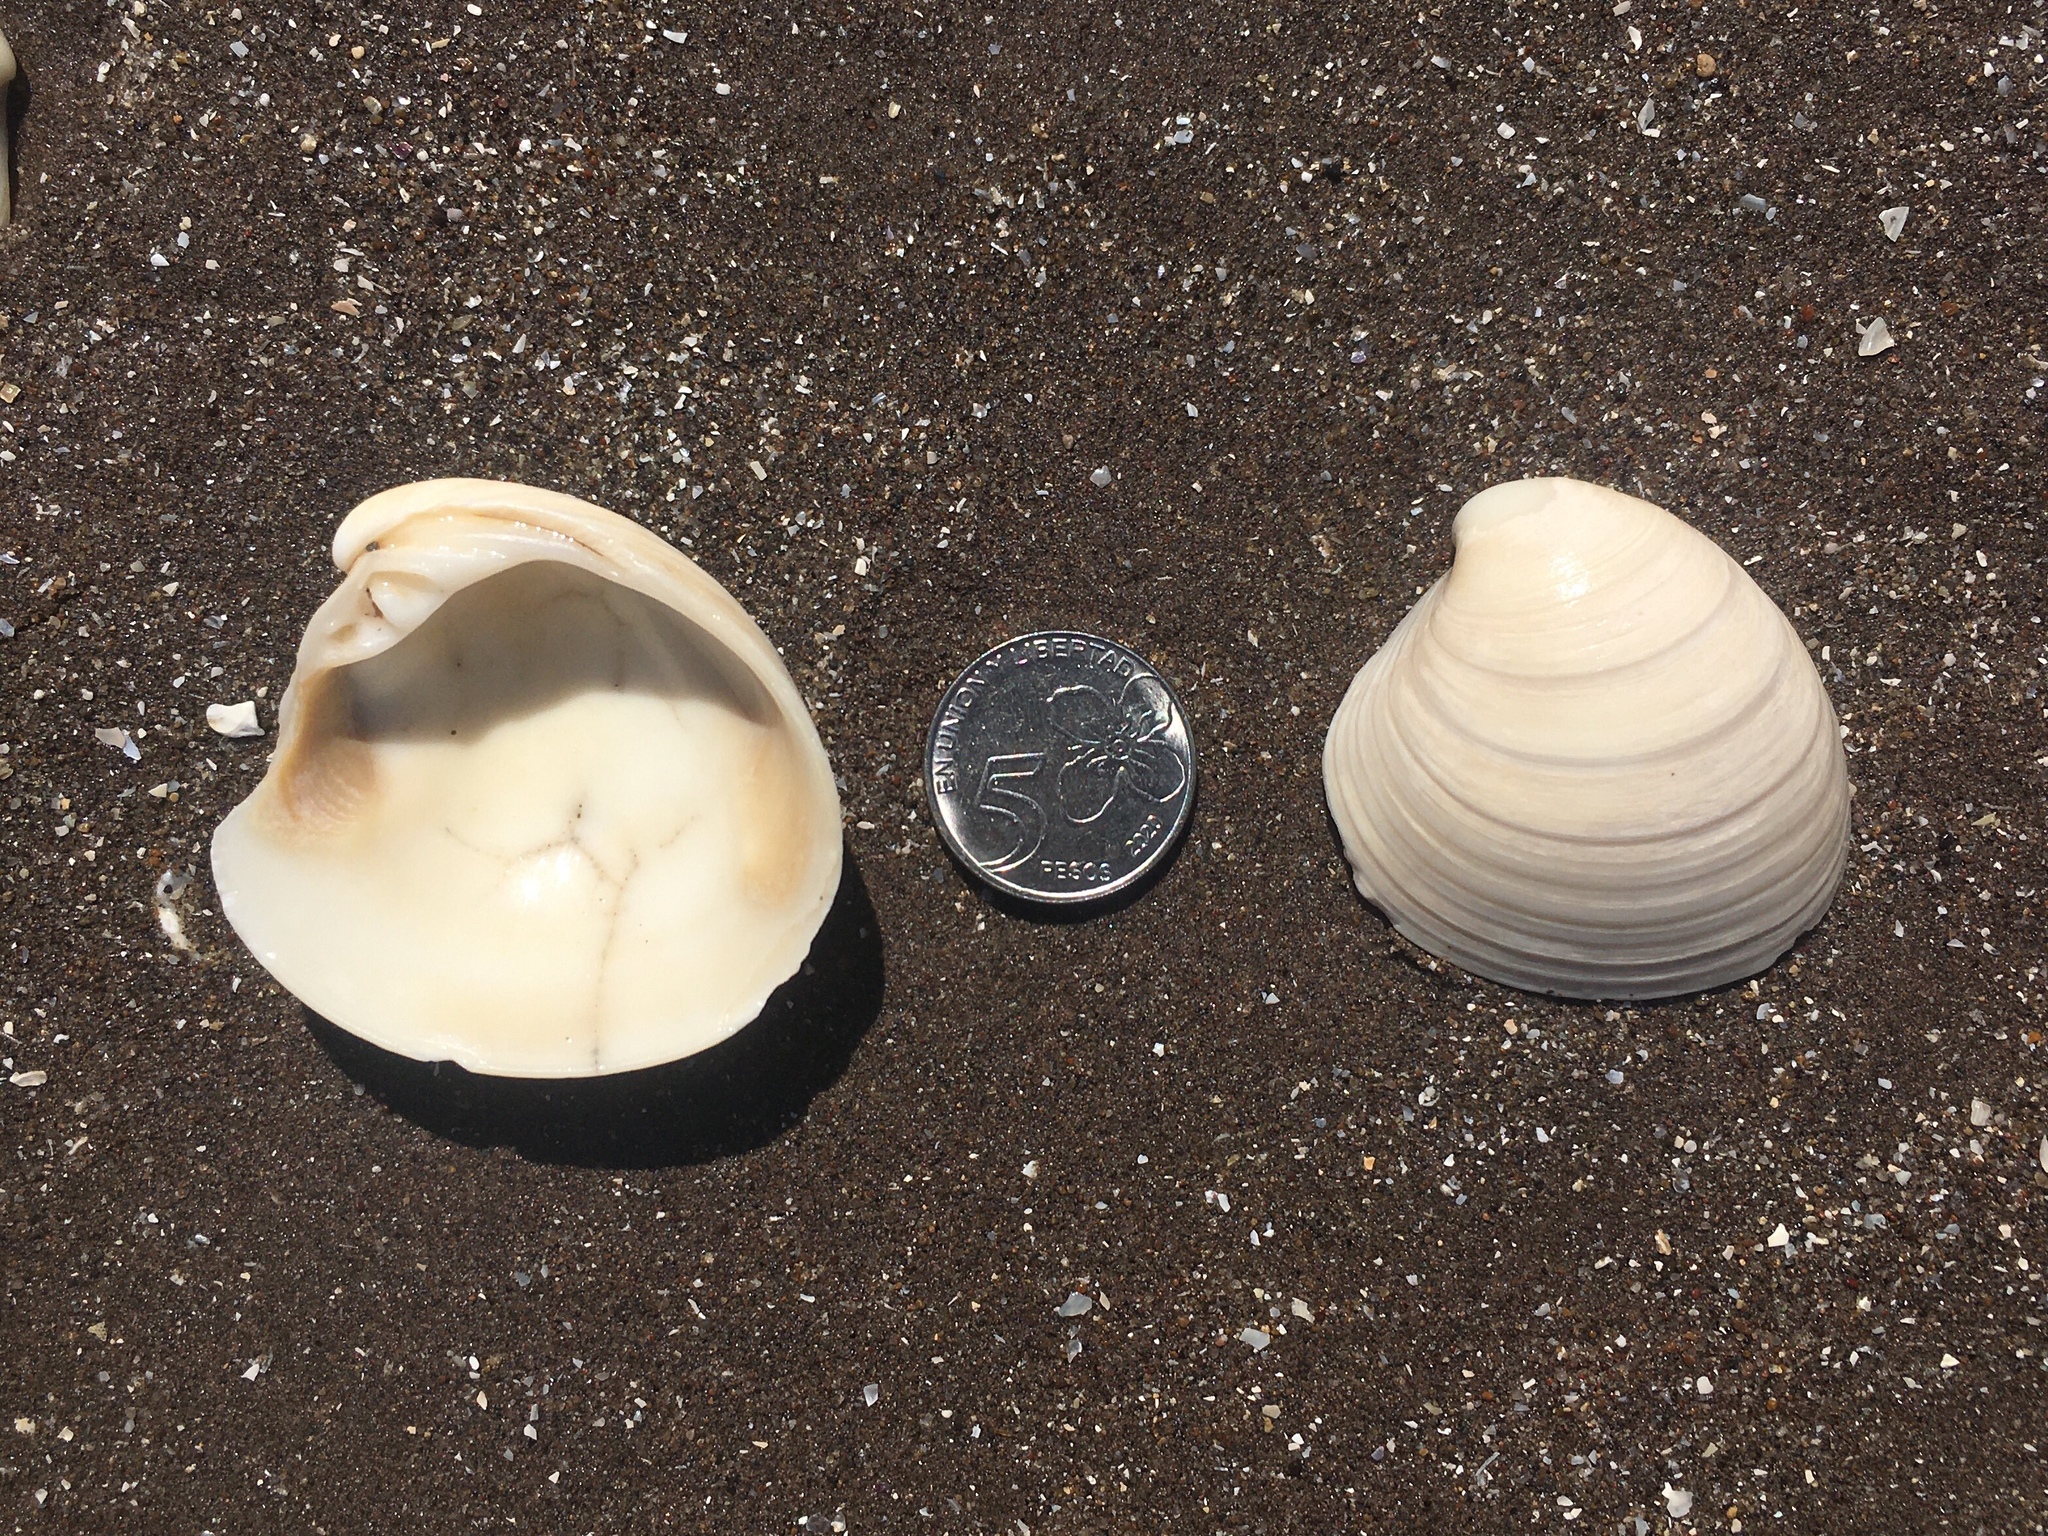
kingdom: Animalia
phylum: Mollusca
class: Bivalvia
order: Venerida
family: Veneridae
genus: Proteopitar
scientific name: Proteopitar patagonicus
